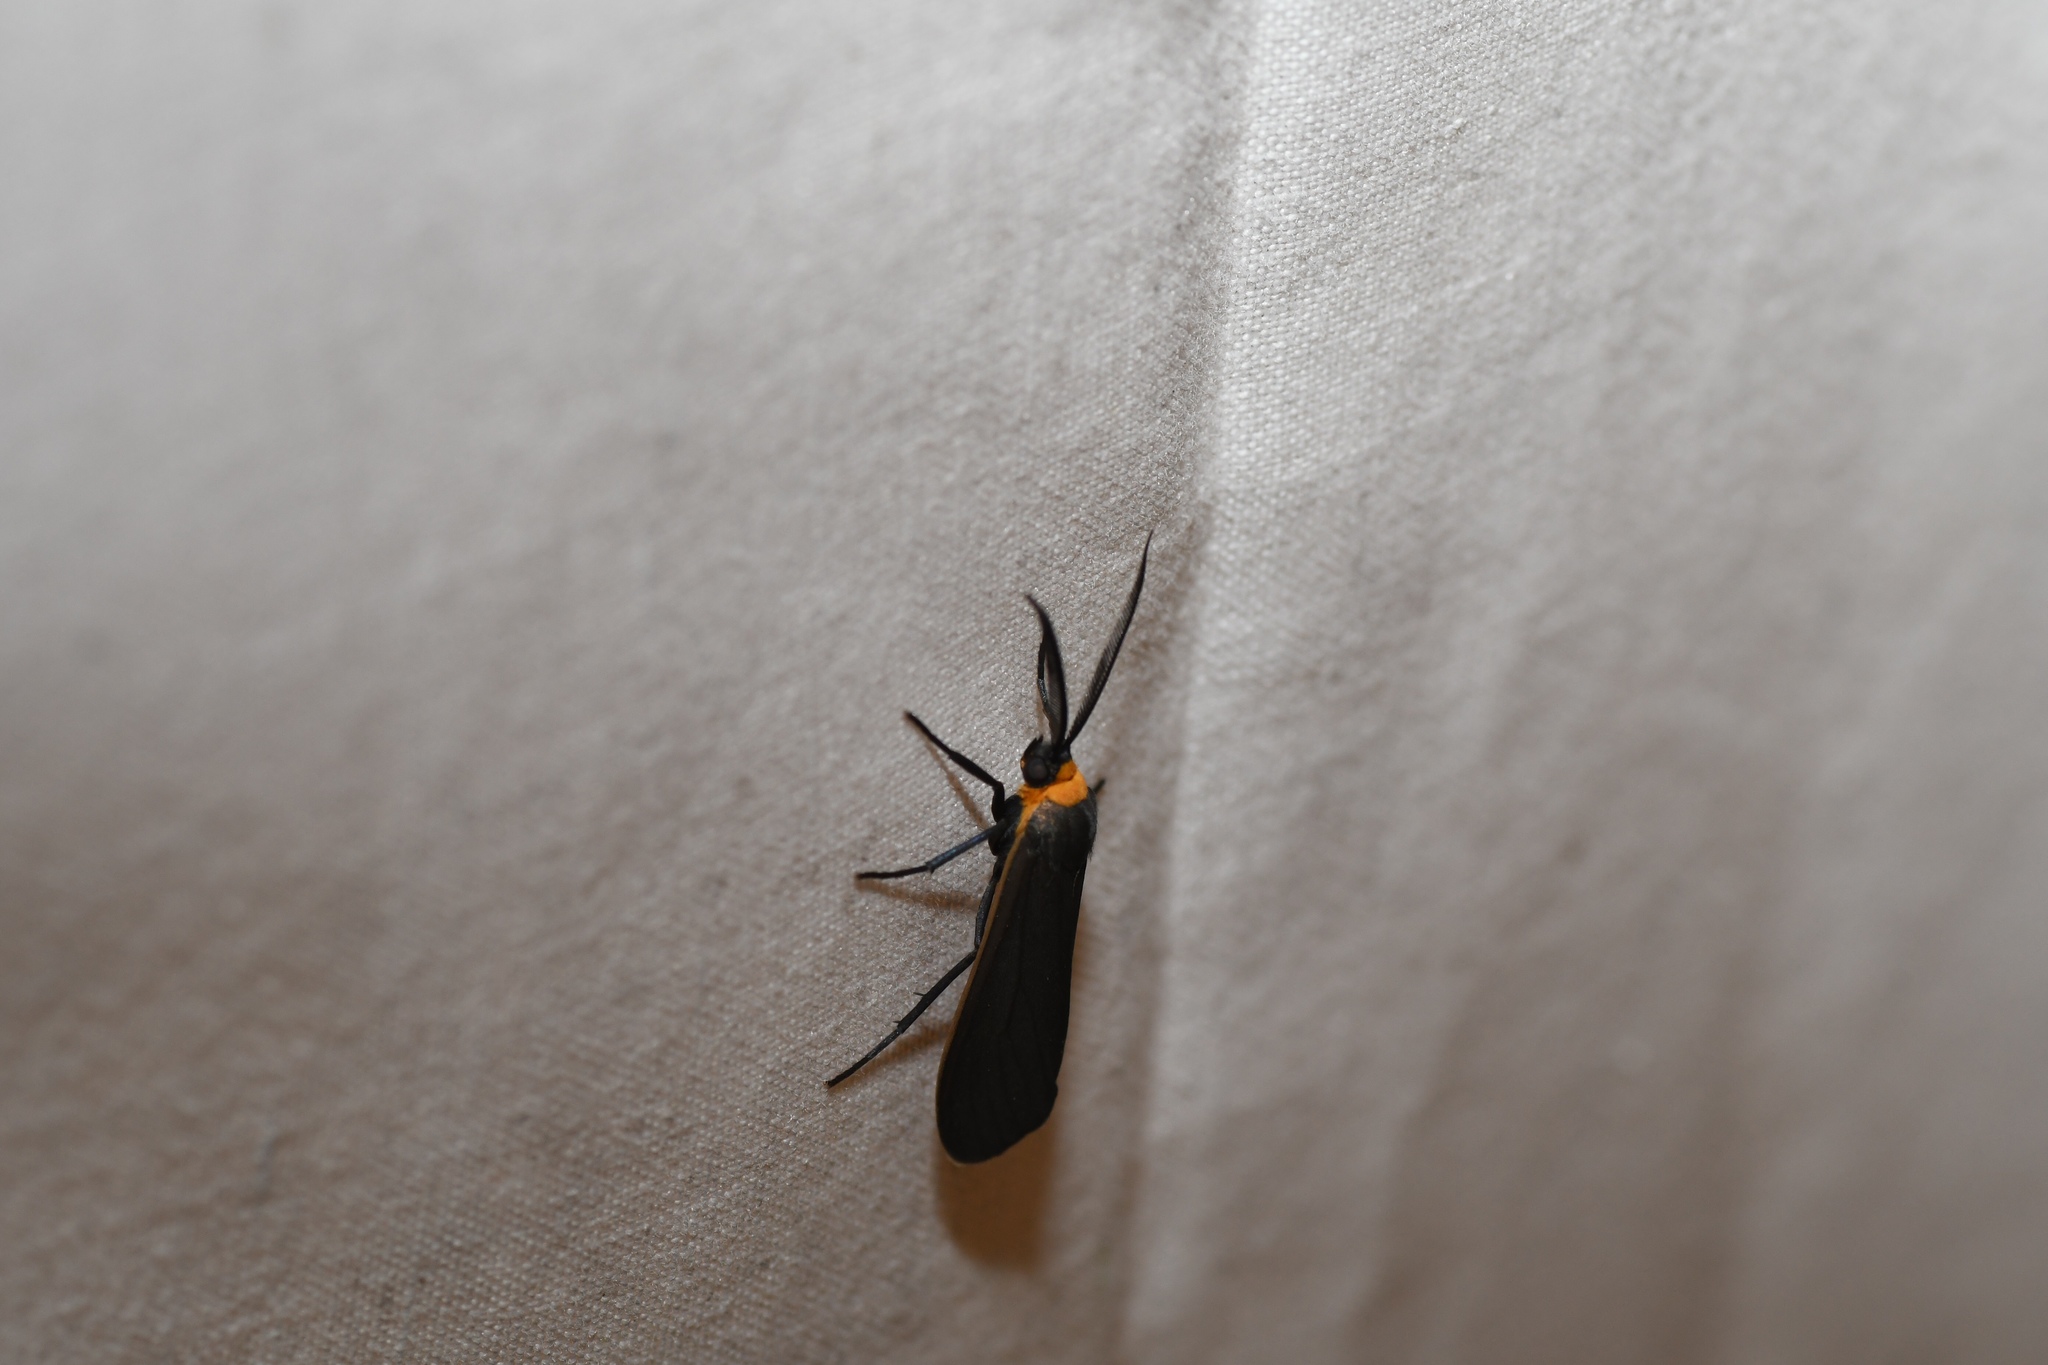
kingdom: Animalia
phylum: Arthropoda
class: Insecta
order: Lepidoptera
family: Erebidae
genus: Cisseps
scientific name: Cisseps fulvicollis
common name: Yellow-collared scape moth
